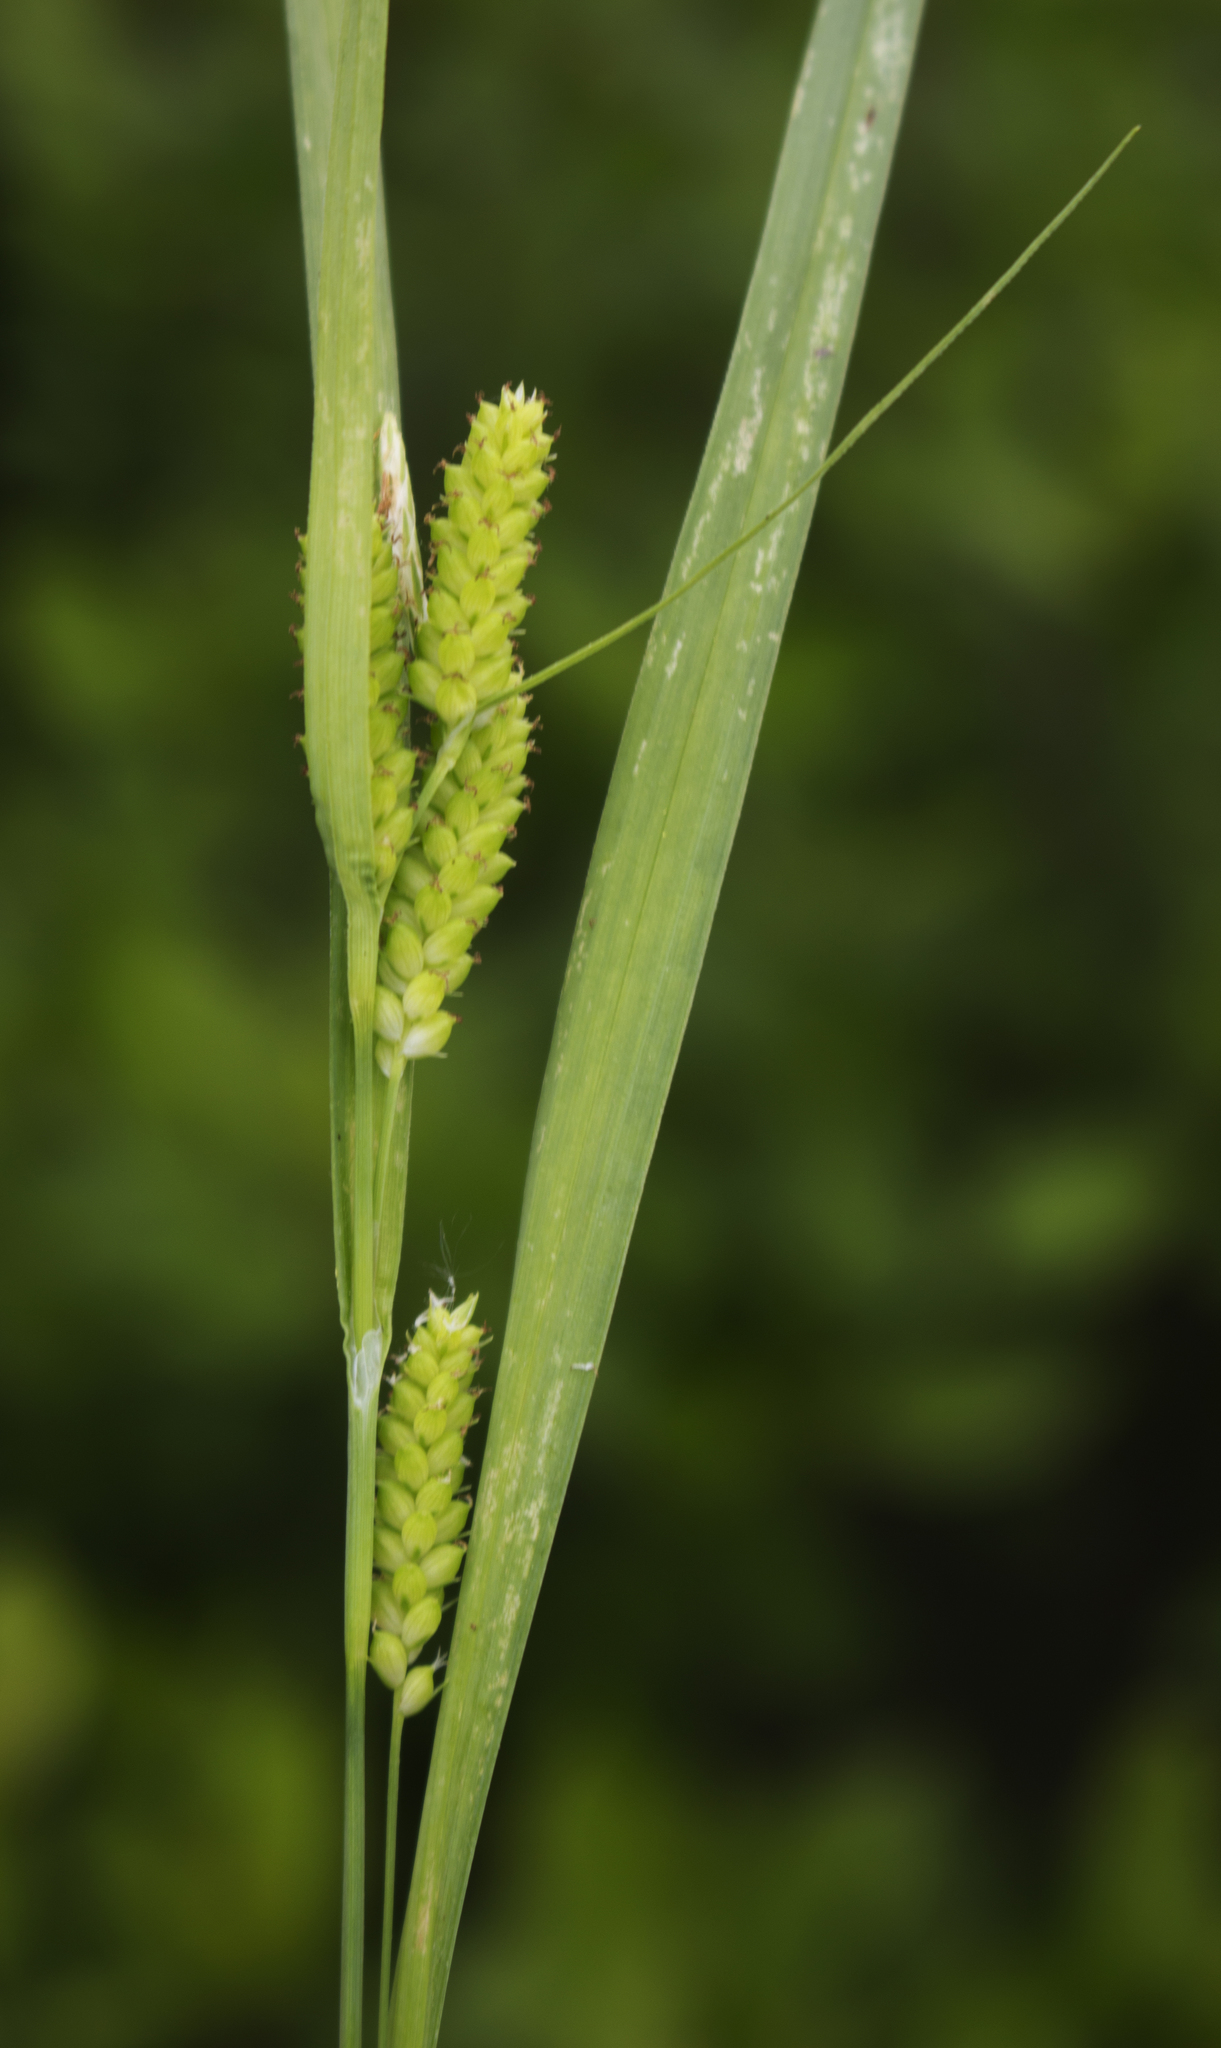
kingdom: Plantae
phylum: Tracheophyta
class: Liliopsida
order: Poales
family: Cyperaceae
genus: Carex
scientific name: Carex granularis
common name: Granular sedge
